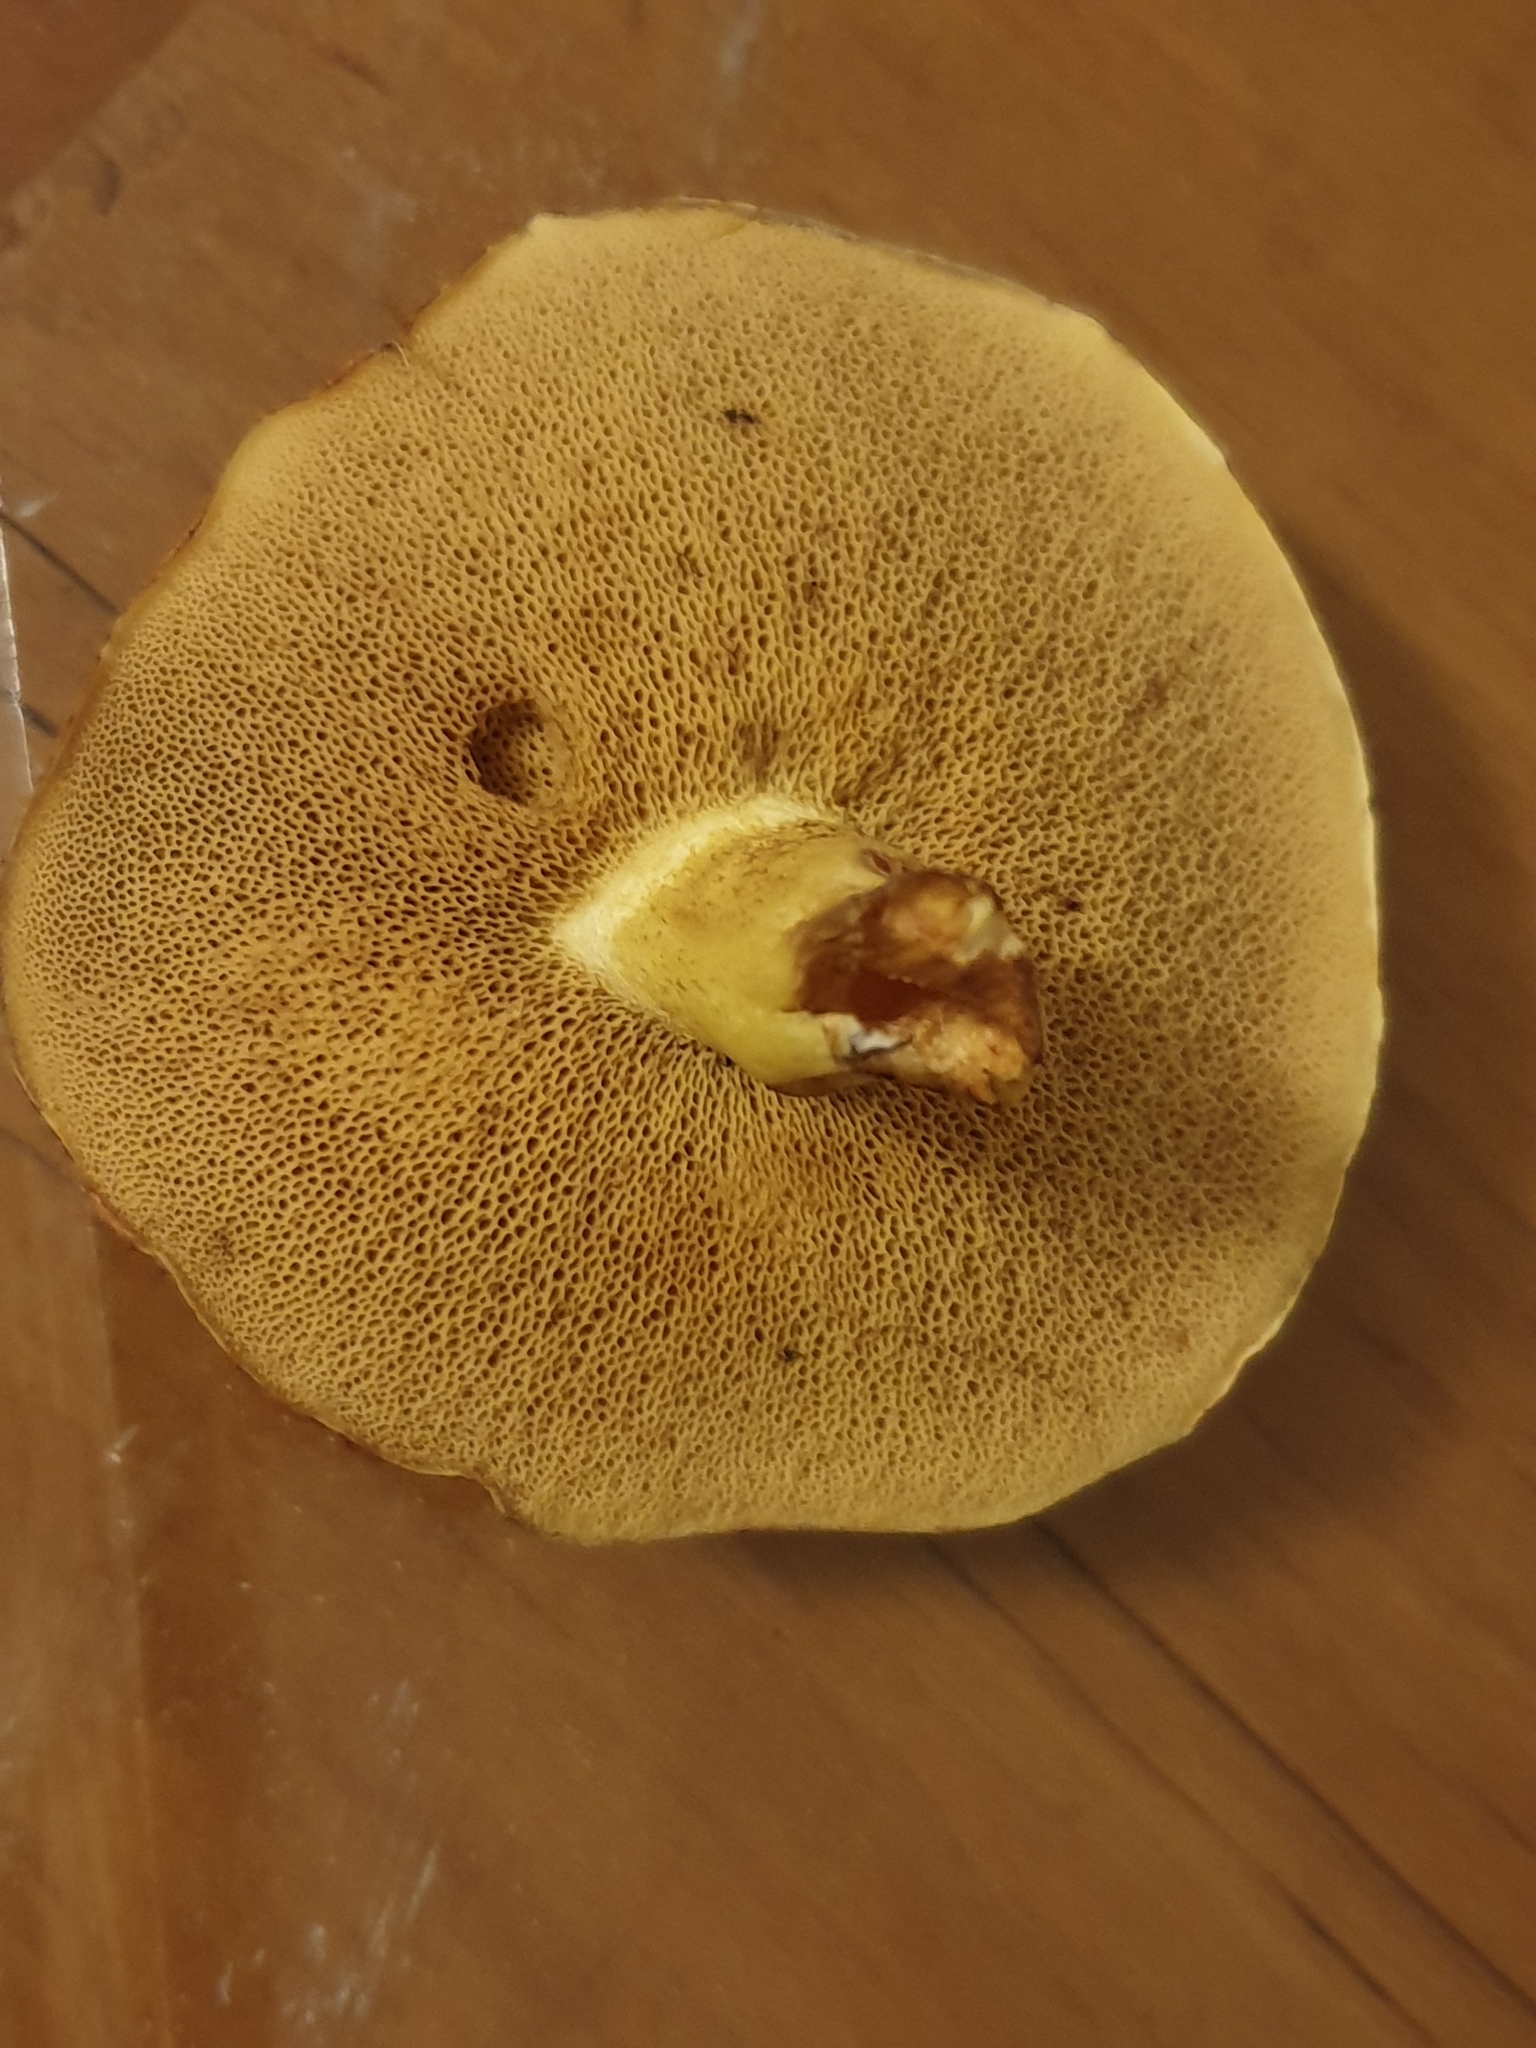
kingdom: Fungi
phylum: Basidiomycota
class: Agaricomycetes
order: Boletales
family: Suillaceae
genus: Suillus
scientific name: Suillus granulatus
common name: Weeping bolete
